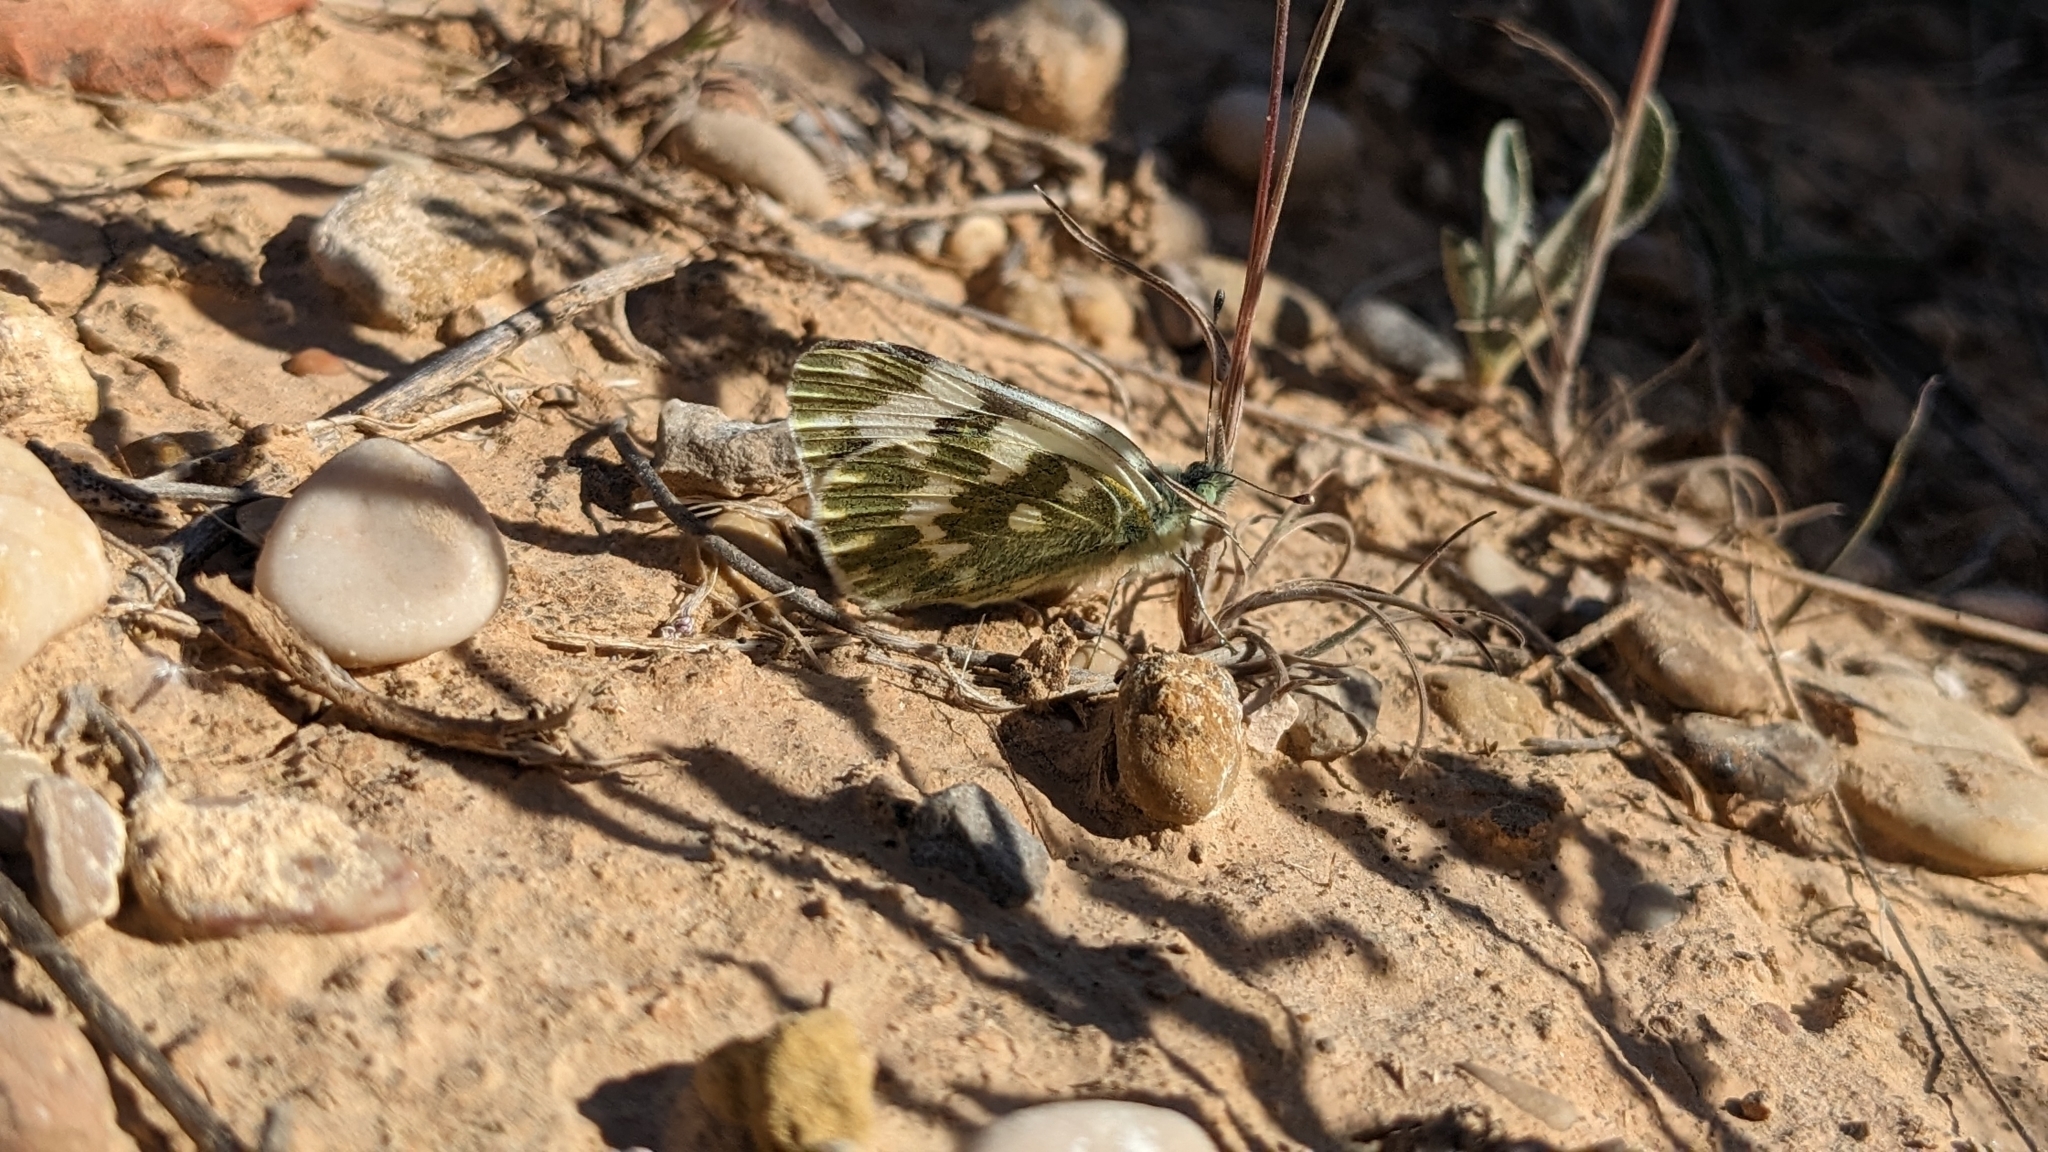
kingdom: Animalia
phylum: Arthropoda
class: Insecta
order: Lepidoptera
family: Pieridae
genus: Pontia
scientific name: Pontia daplidice
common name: Bath white
